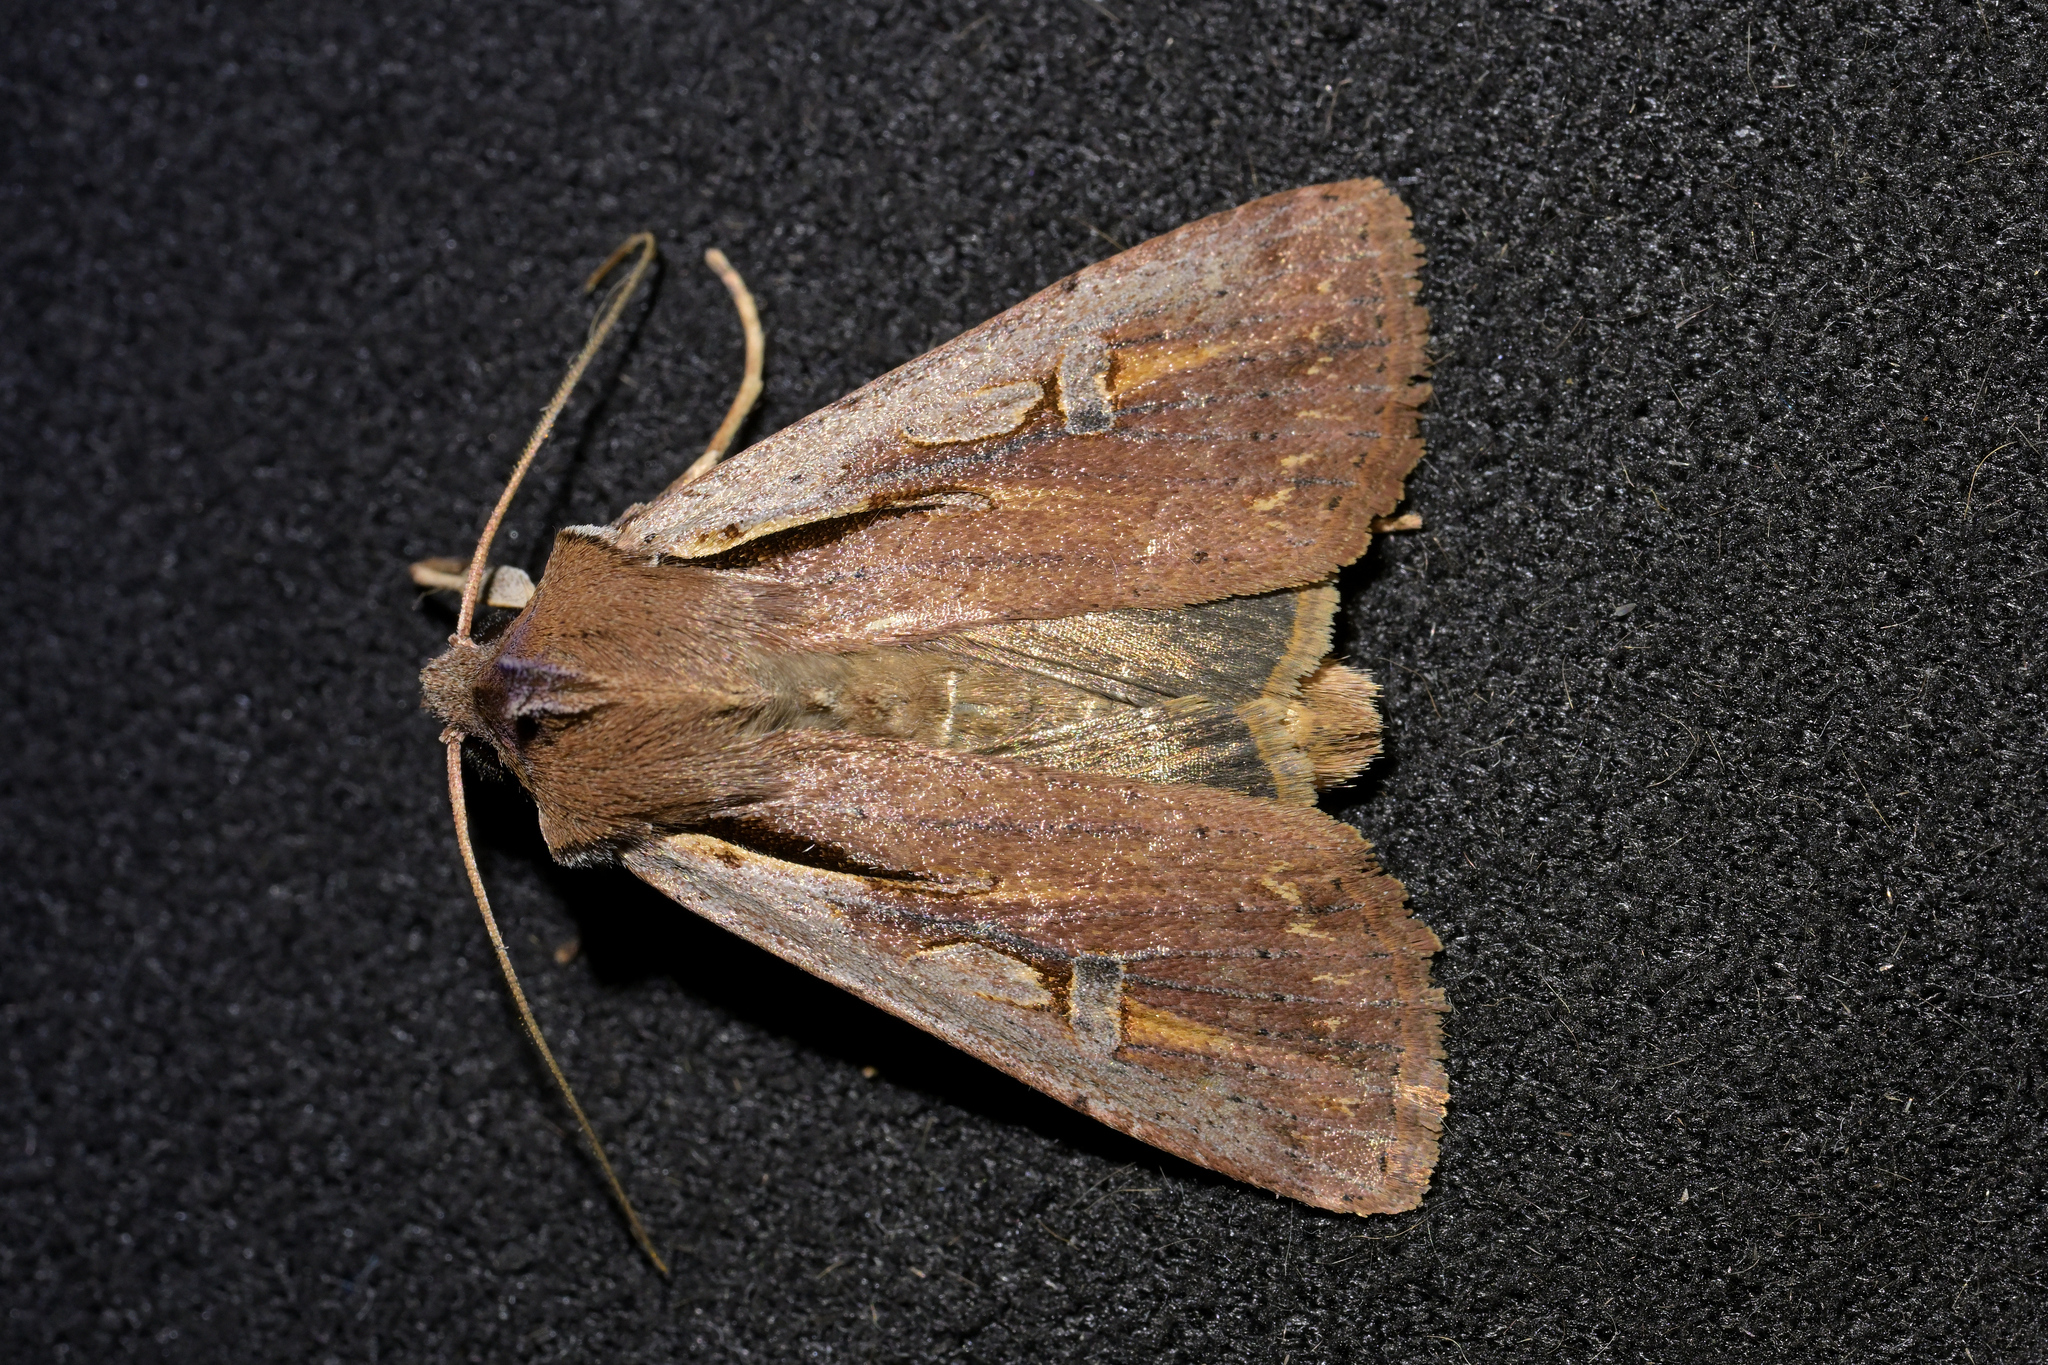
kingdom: Animalia
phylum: Arthropoda
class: Insecta
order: Lepidoptera
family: Noctuidae
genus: Ichneutica
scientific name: Ichneutica atristriga
